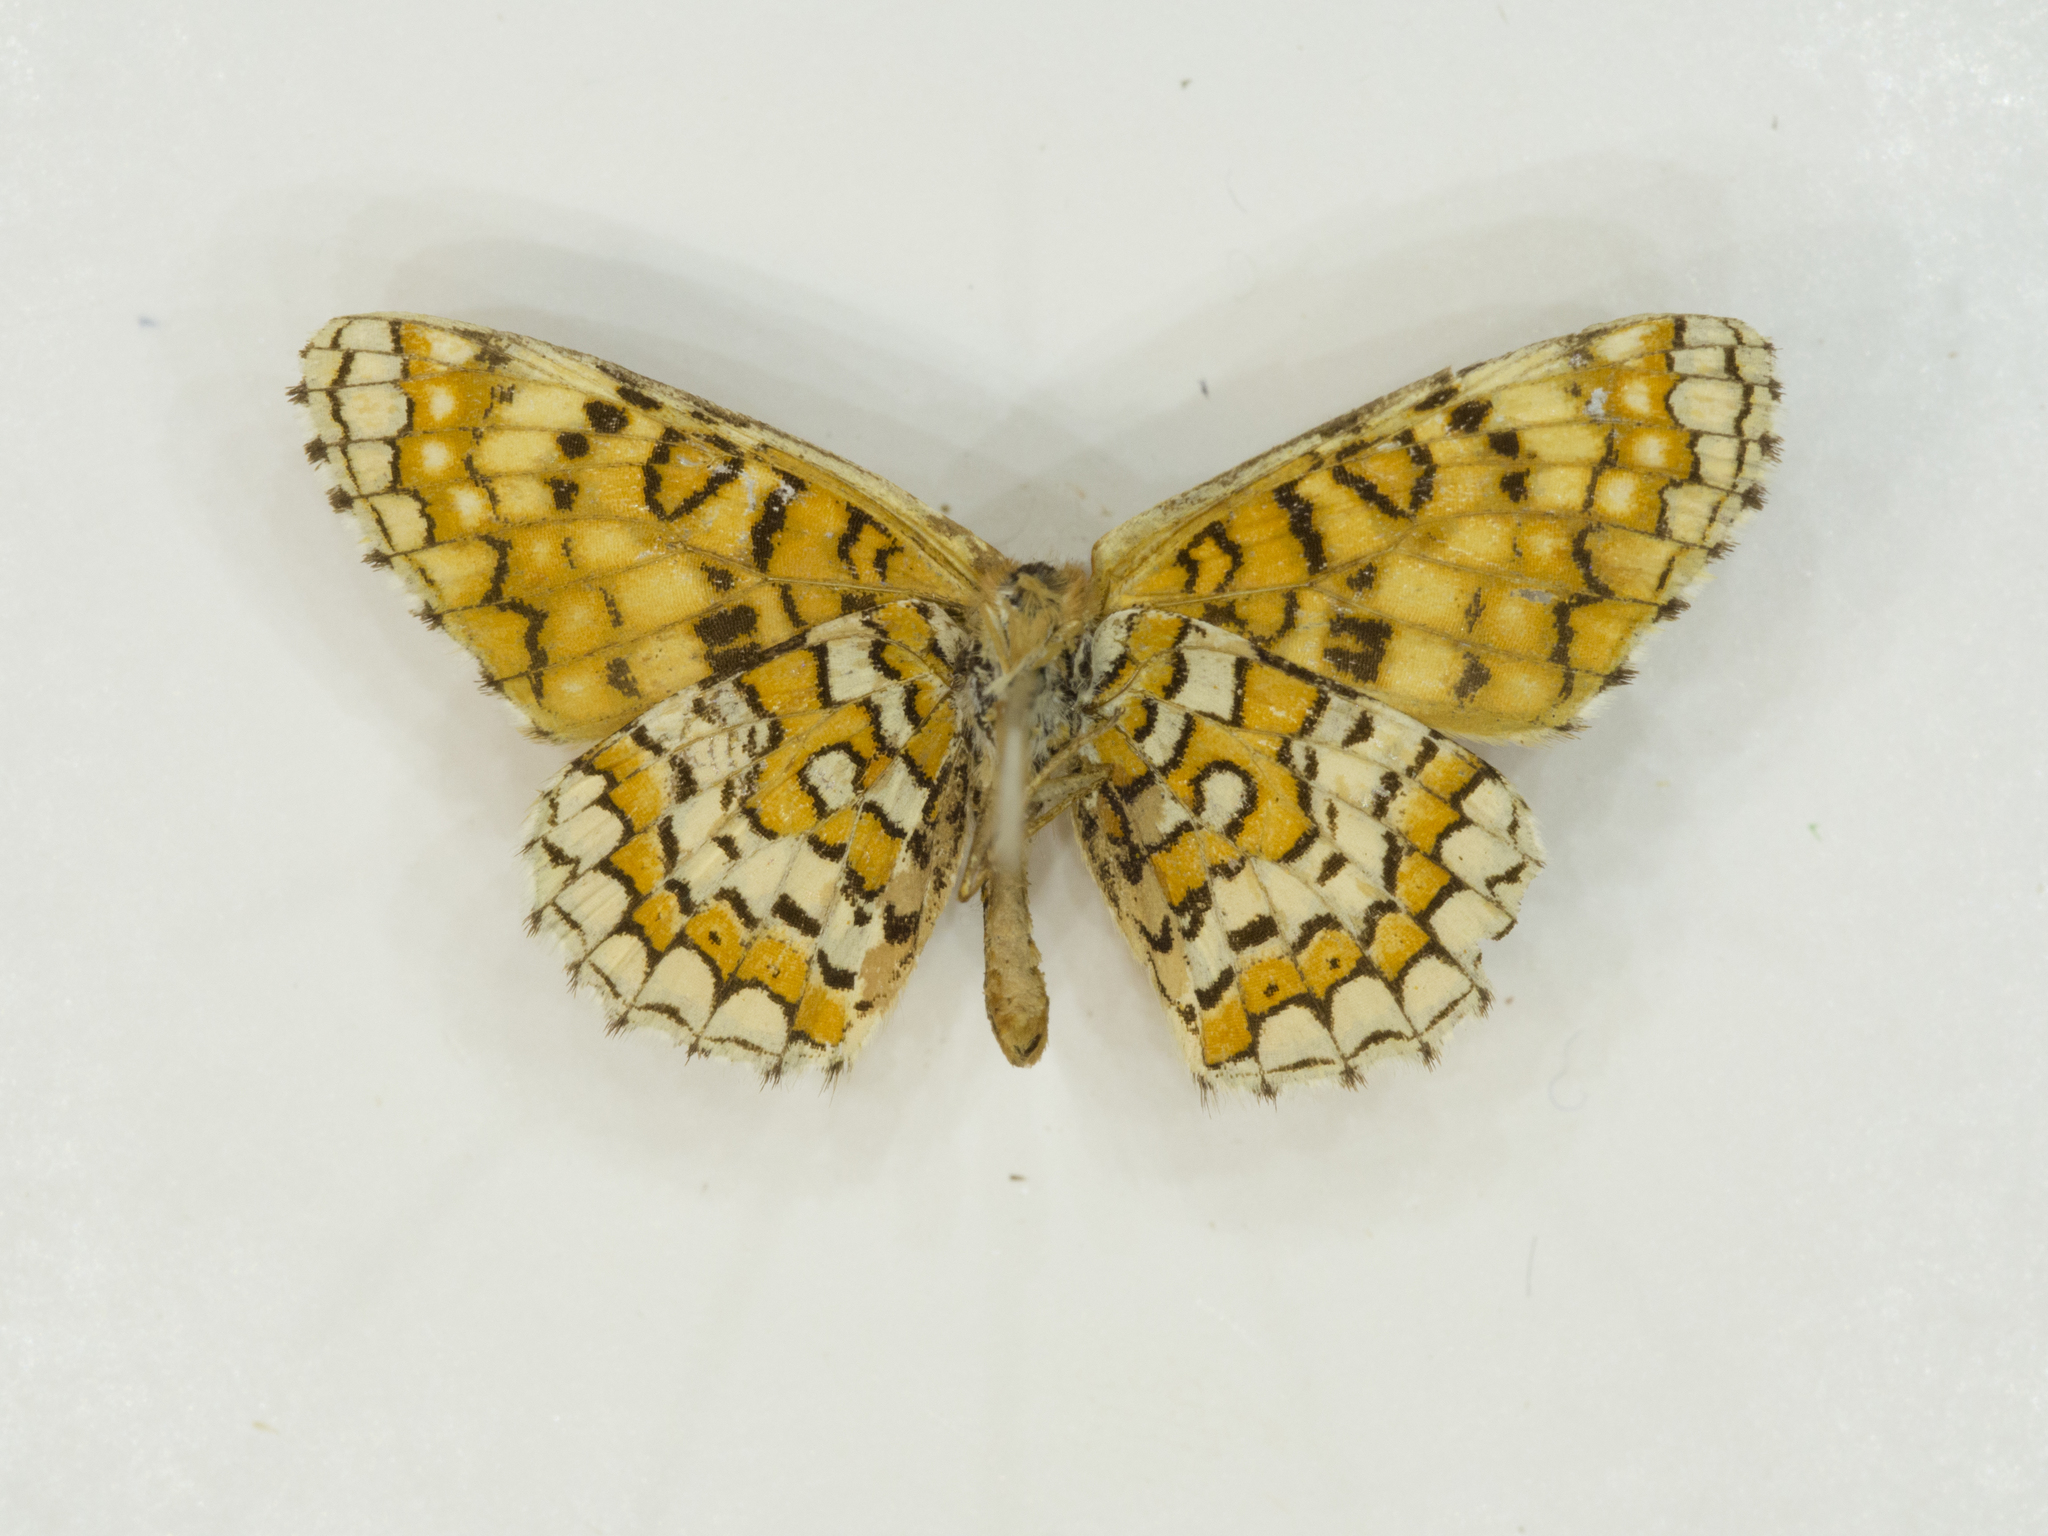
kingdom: Animalia
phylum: Arthropoda
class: Insecta
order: Lepidoptera
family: Nymphalidae
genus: Poladryas
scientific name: Poladryas minuta
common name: Dotted checkerspot
